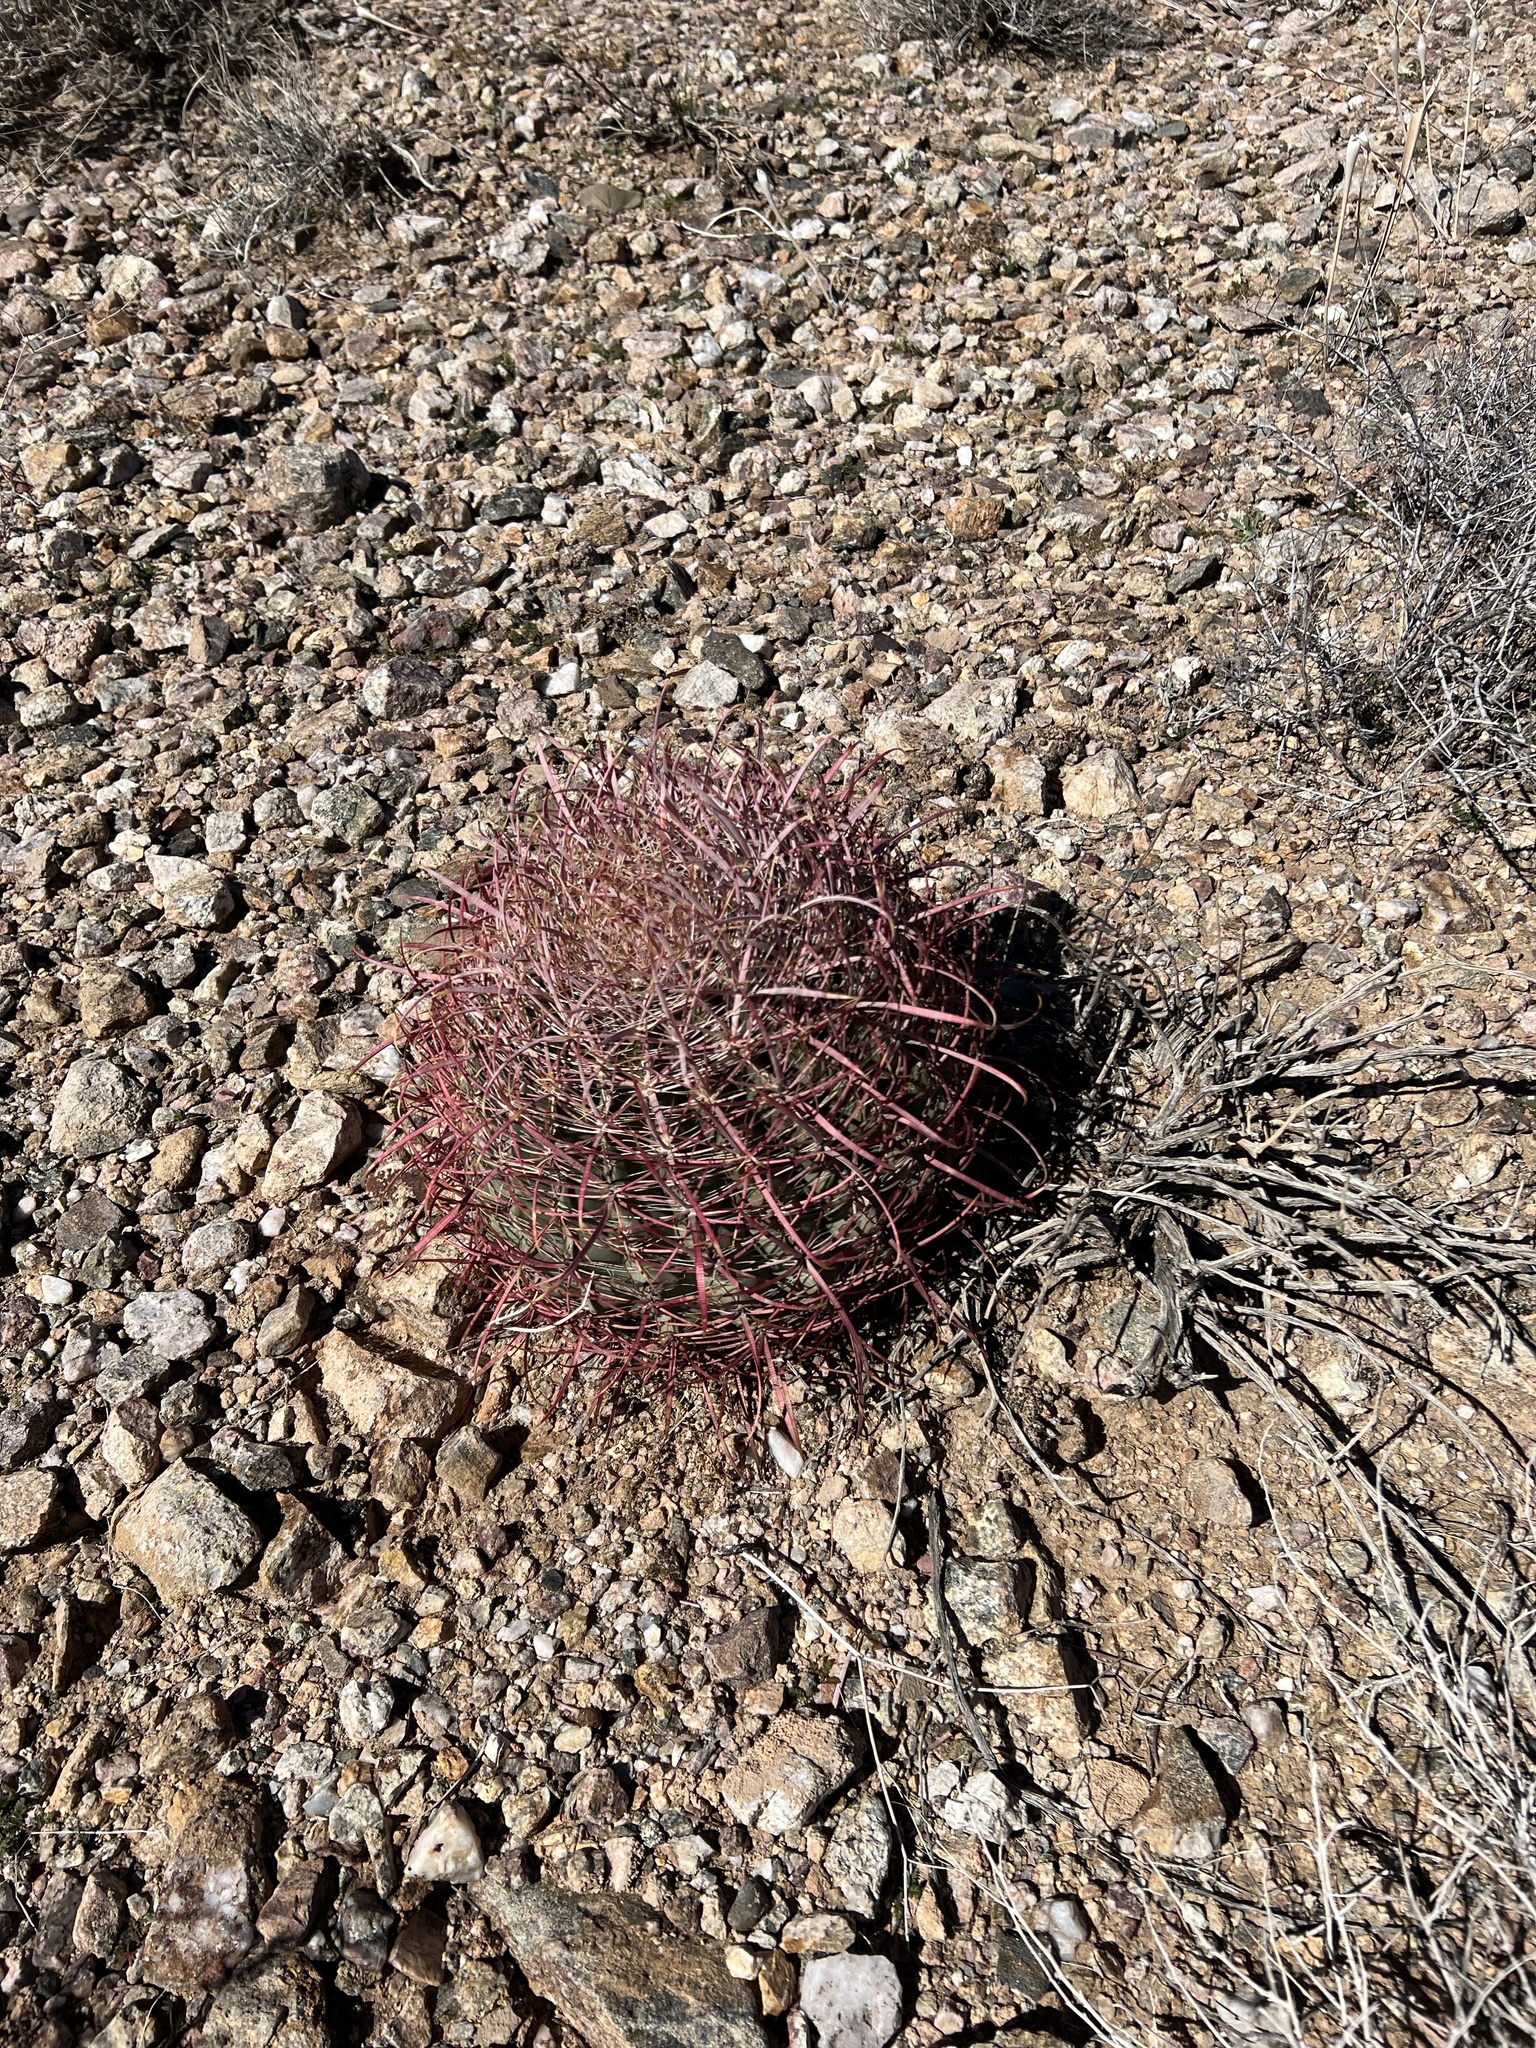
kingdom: Plantae
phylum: Tracheophyta
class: Magnoliopsida
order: Caryophyllales
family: Cactaceae
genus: Ferocactus
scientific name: Ferocactus cylindraceus
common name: California barrel cactus
